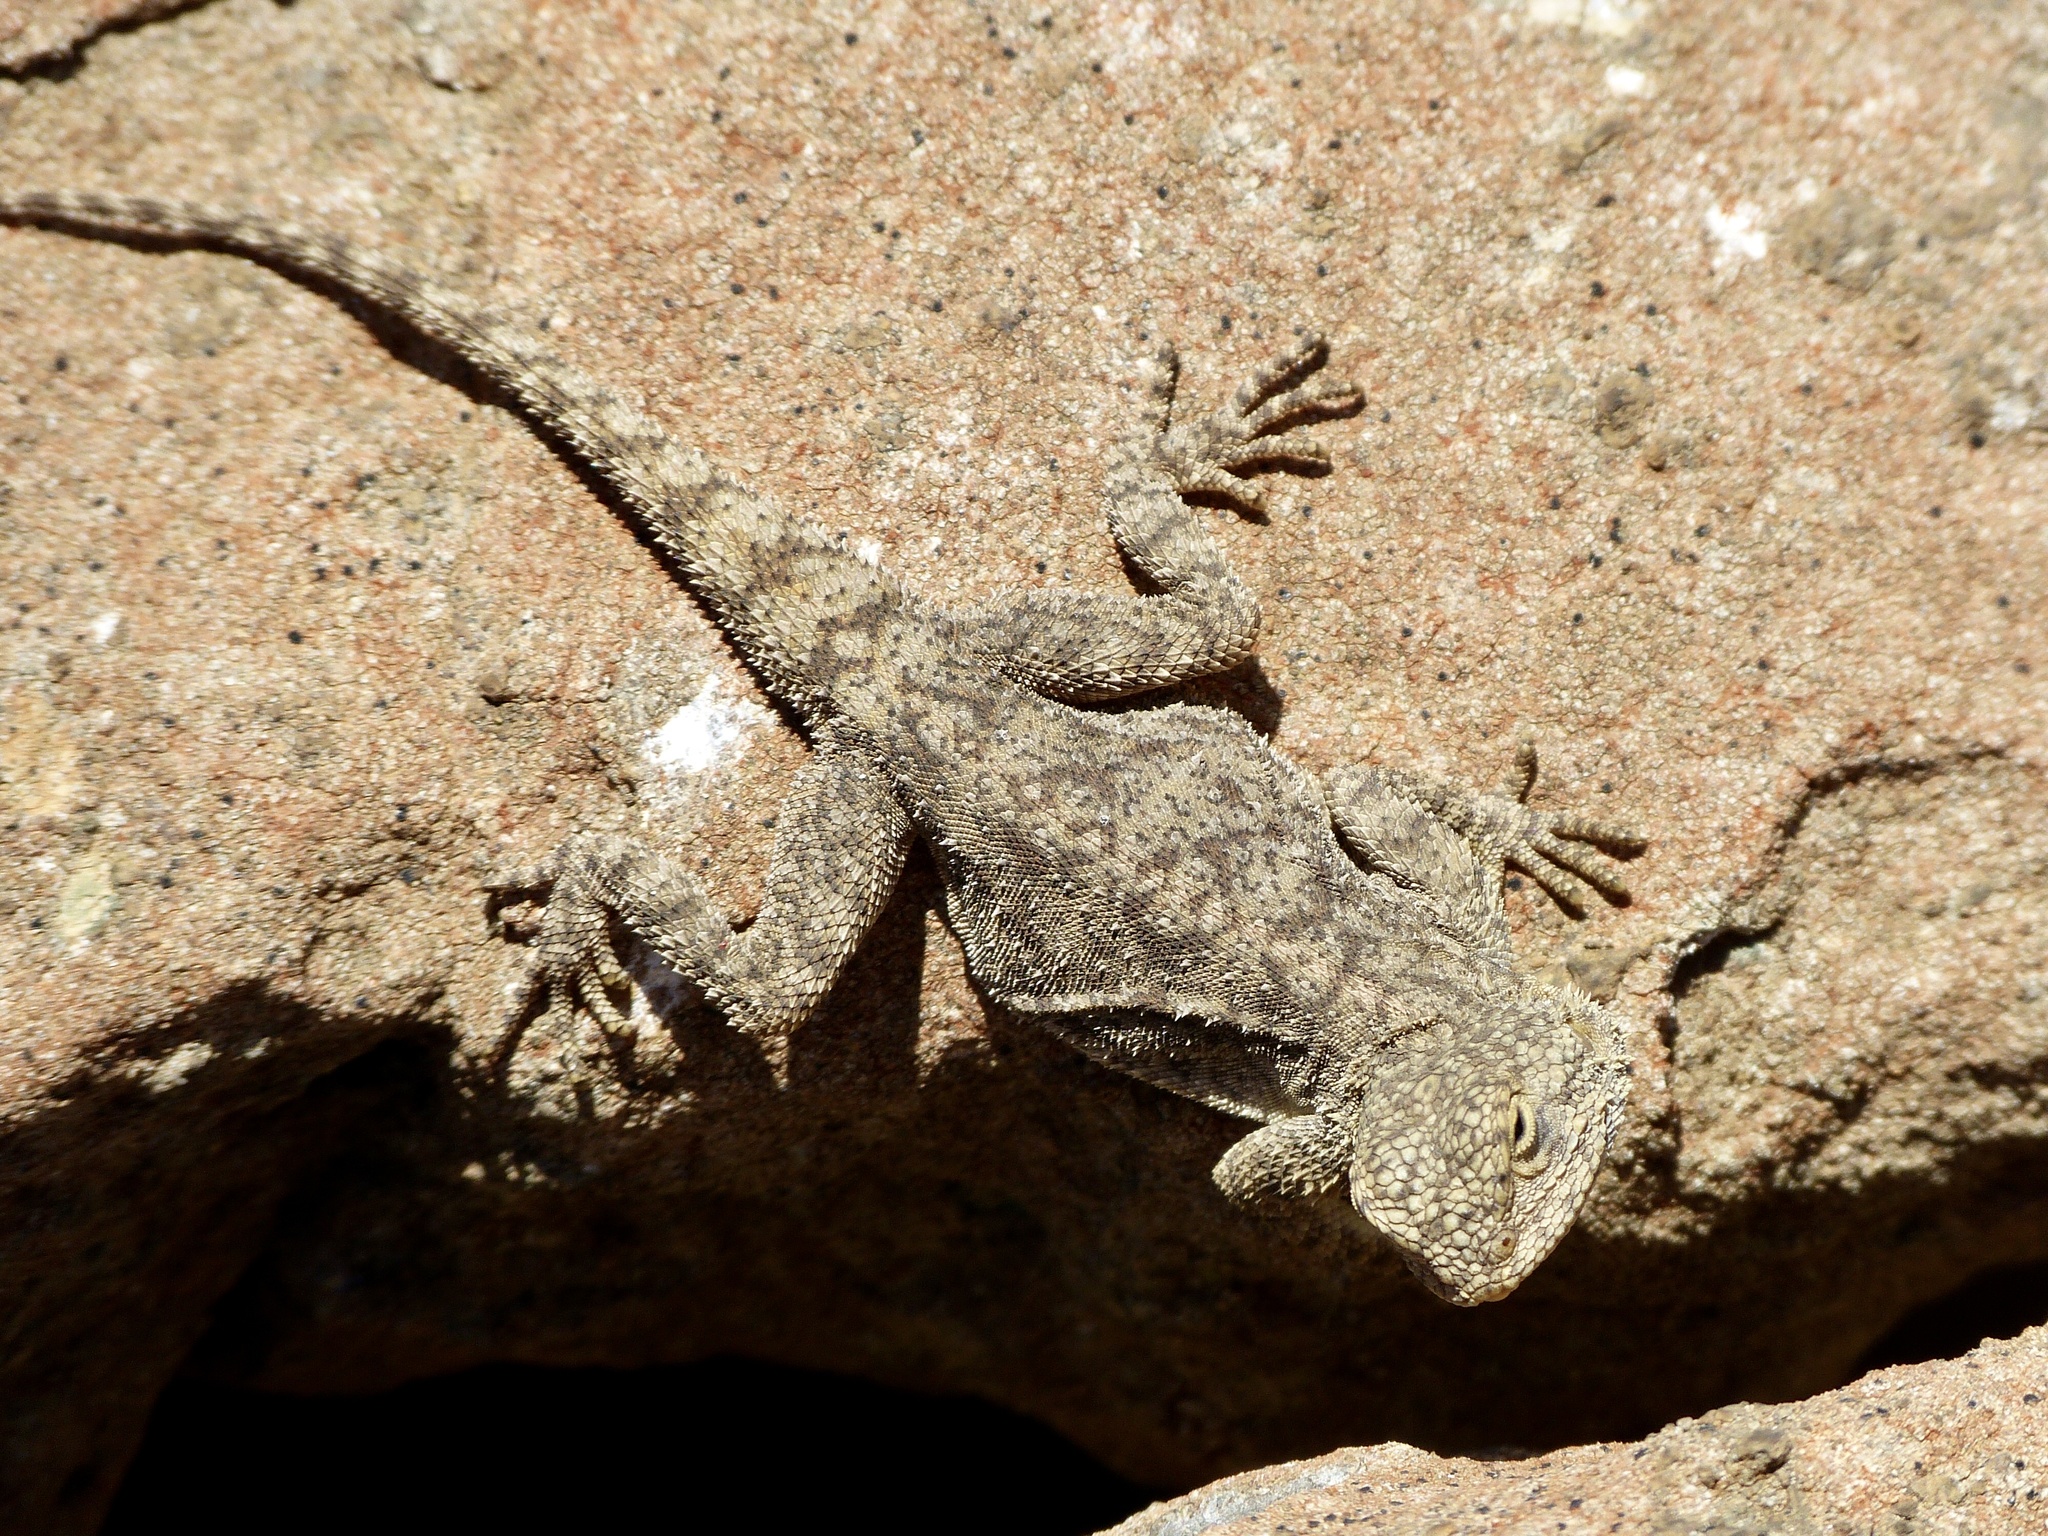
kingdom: Animalia
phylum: Chordata
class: Squamata
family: Agamidae
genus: Agama
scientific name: Agama atra
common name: Southern african rock agama
